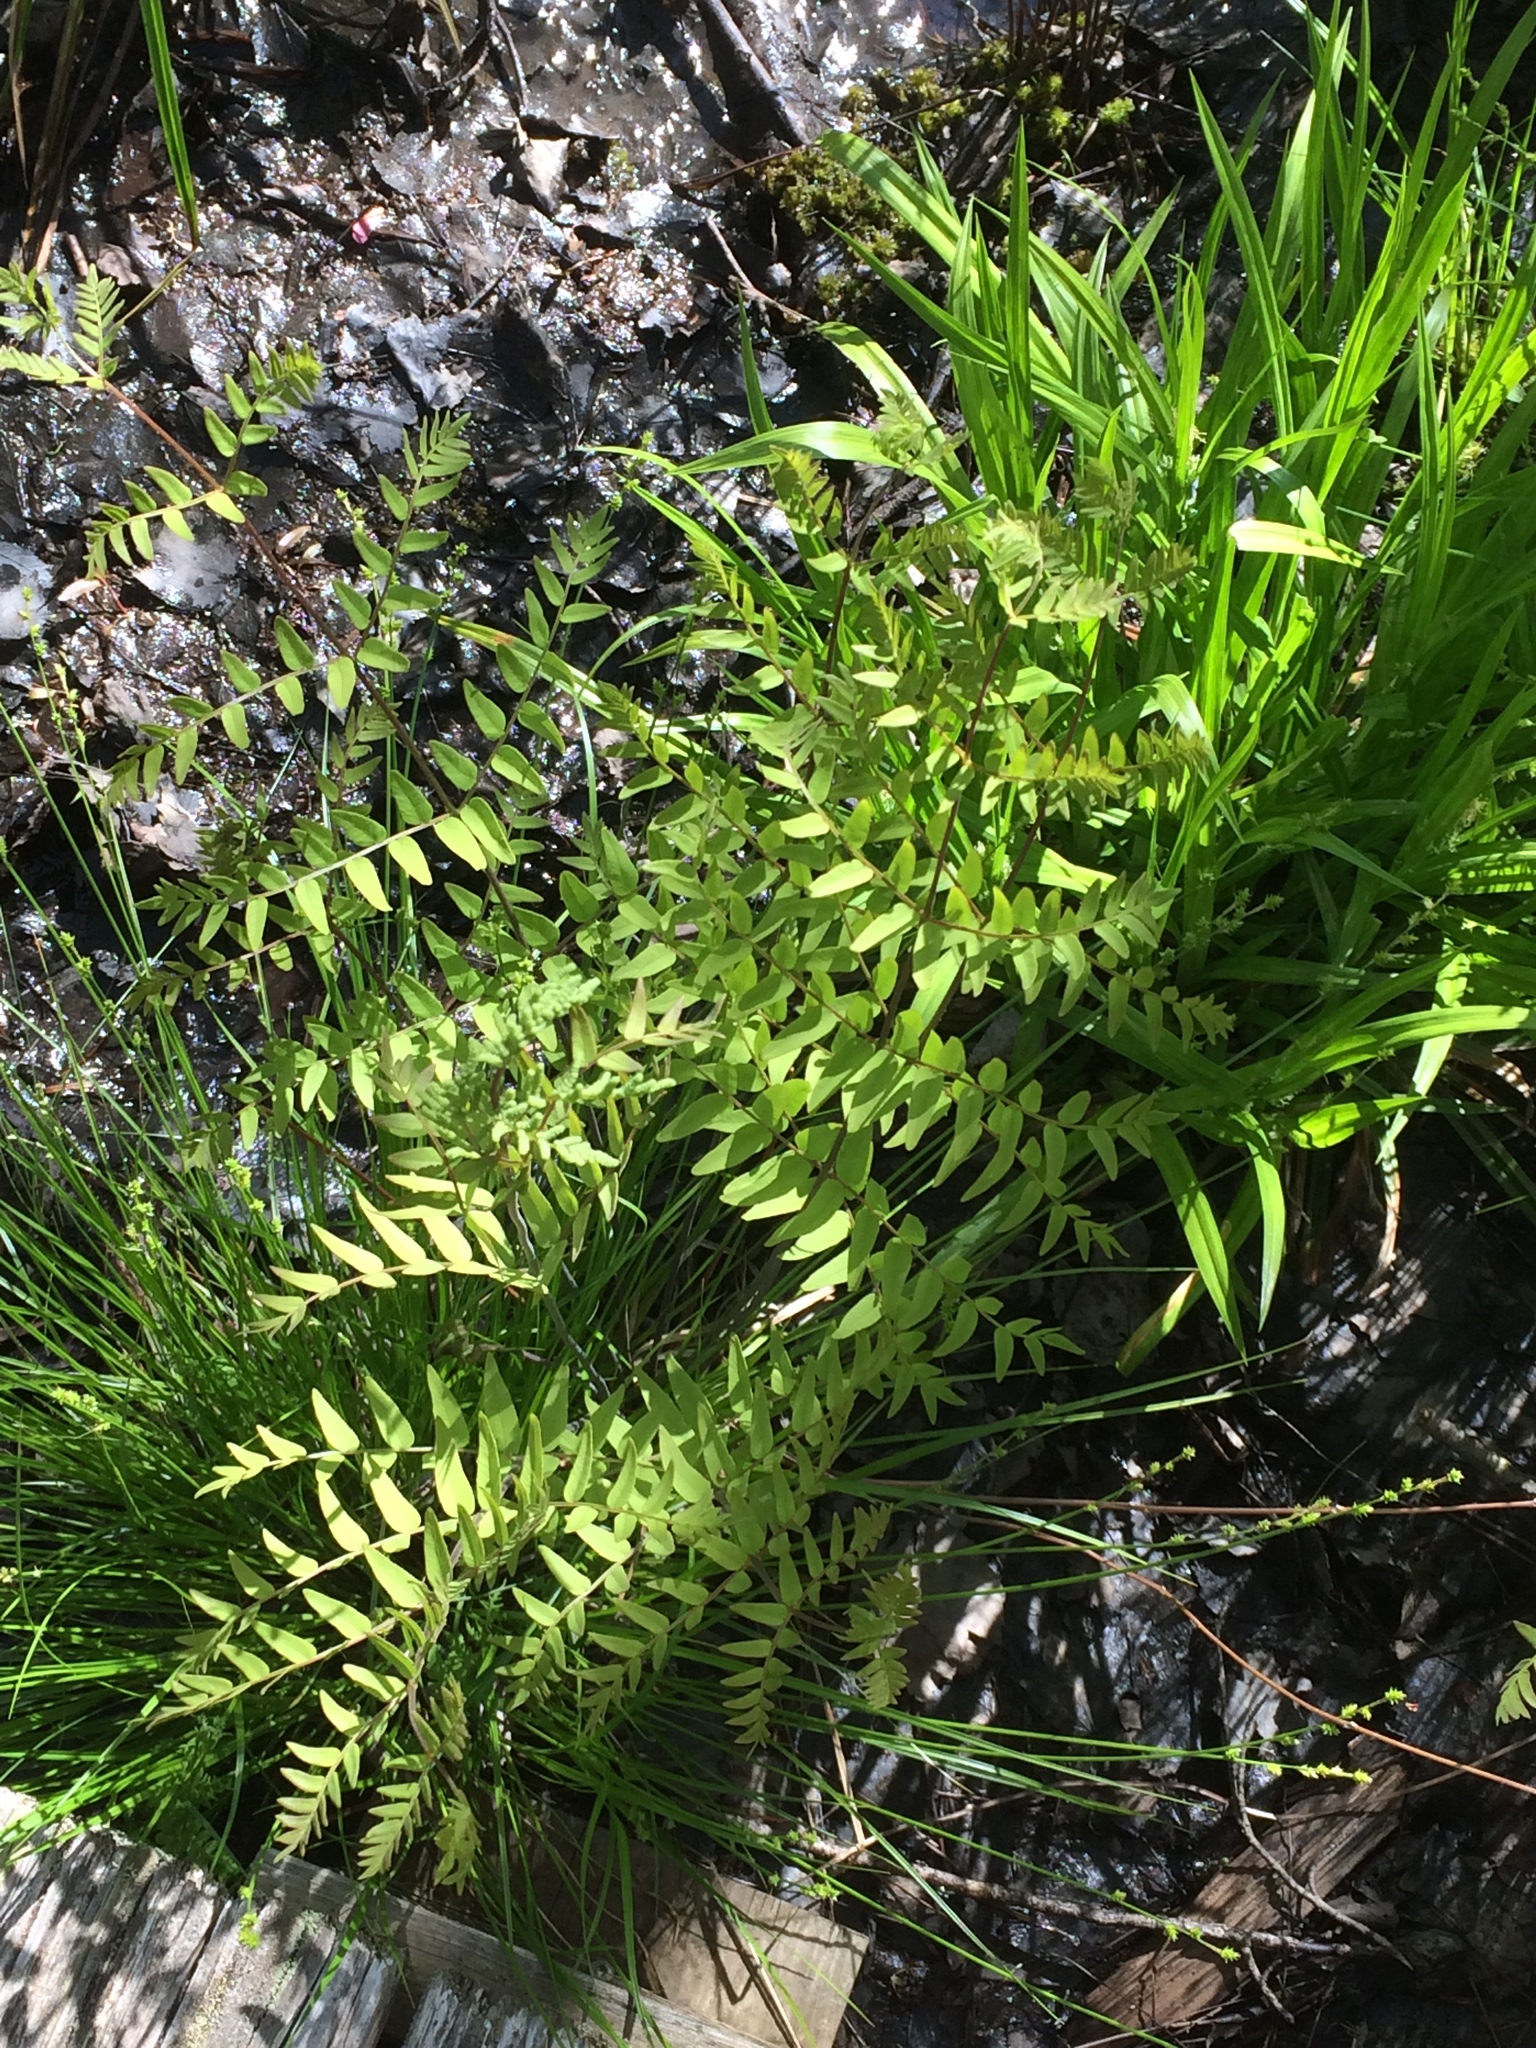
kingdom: Plantae
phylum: Tracheophyta
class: Polypodiopsida
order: Osmundales
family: Osmundaceae
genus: Osmunda
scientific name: Osmunda spectabilis
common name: American royal fern
